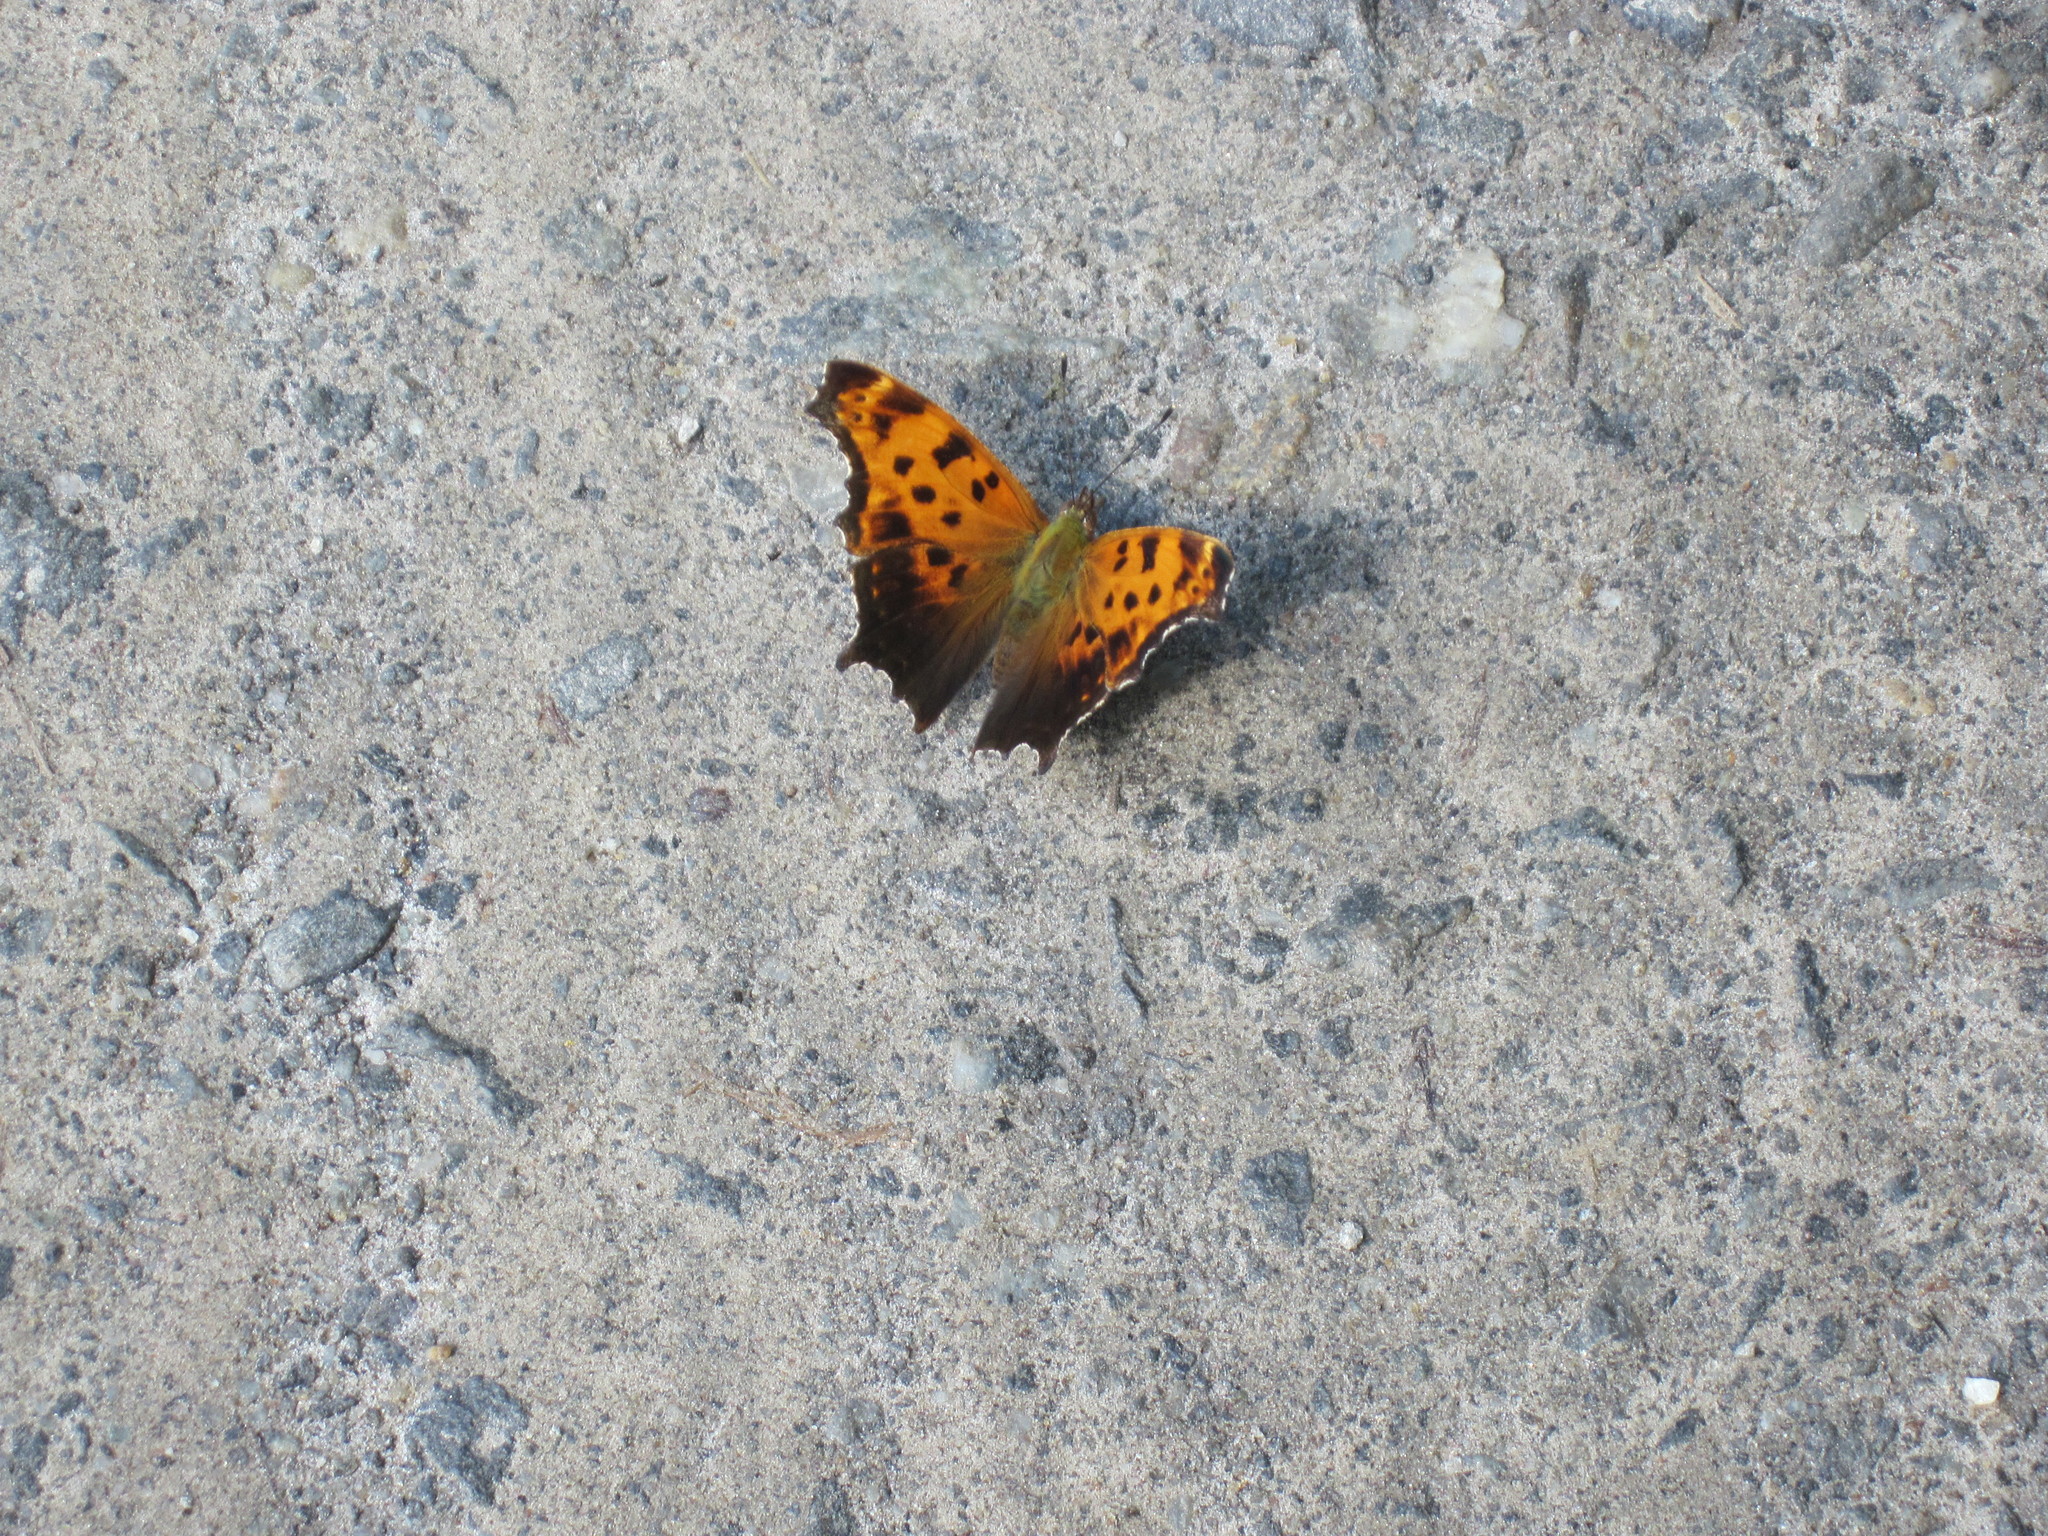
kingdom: Animalia
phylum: Arthropoda
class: Insecta
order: Lepidoptera
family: Nymphalidae
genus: Polygonia
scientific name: Polygonia comma
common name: Eastern comma
